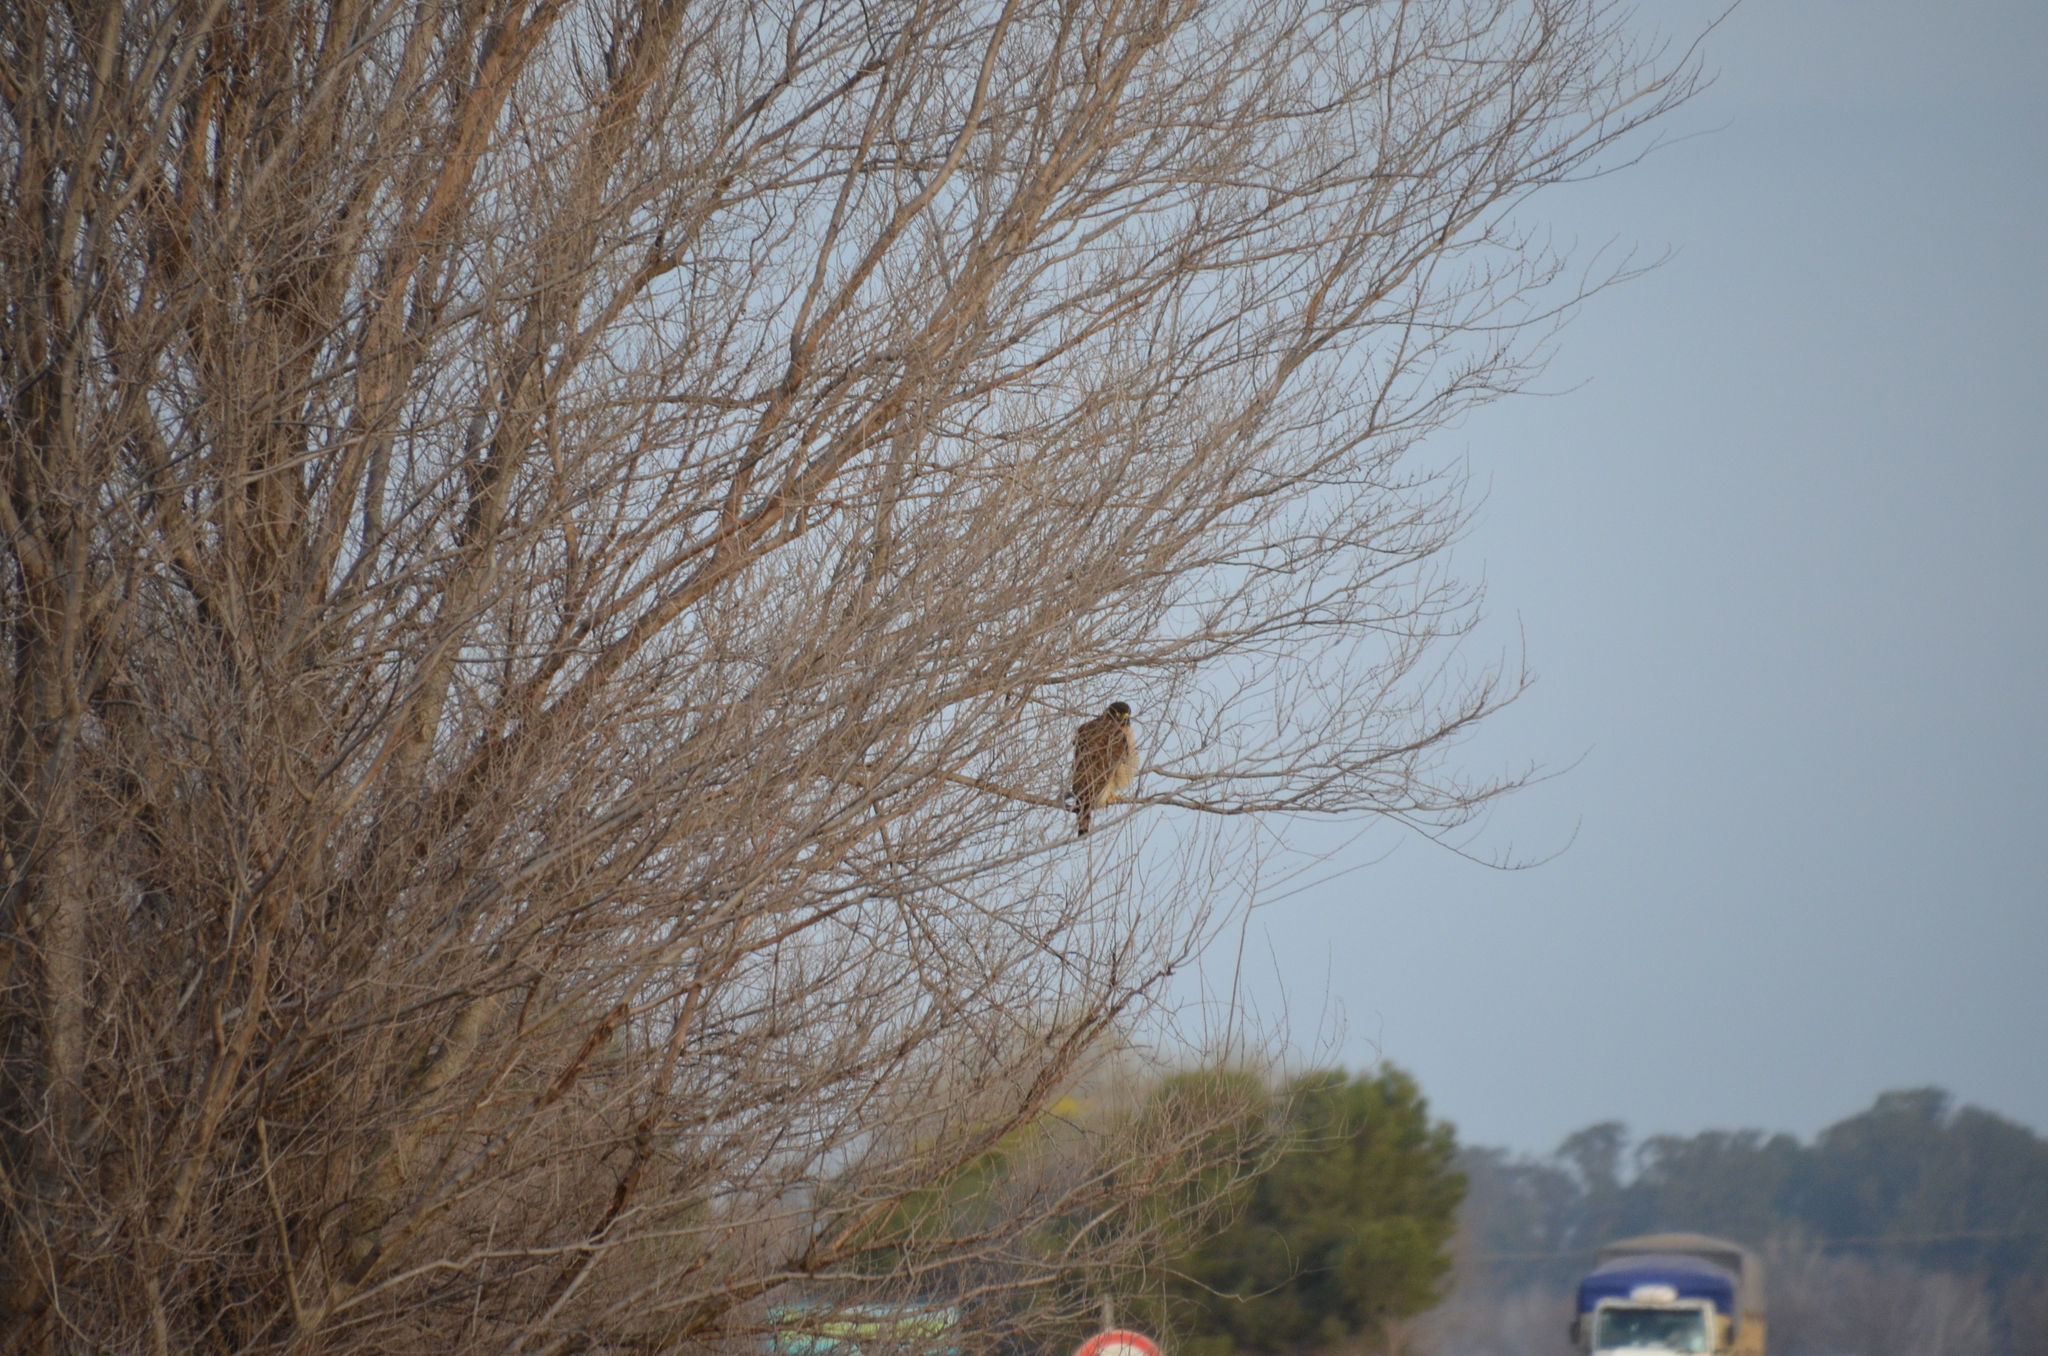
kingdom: Animalia
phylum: Chordata
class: Aves
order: Accipitriformes
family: Accipitridae
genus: Rupornis
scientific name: Rupornis magnirostris
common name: Roadside hawk
